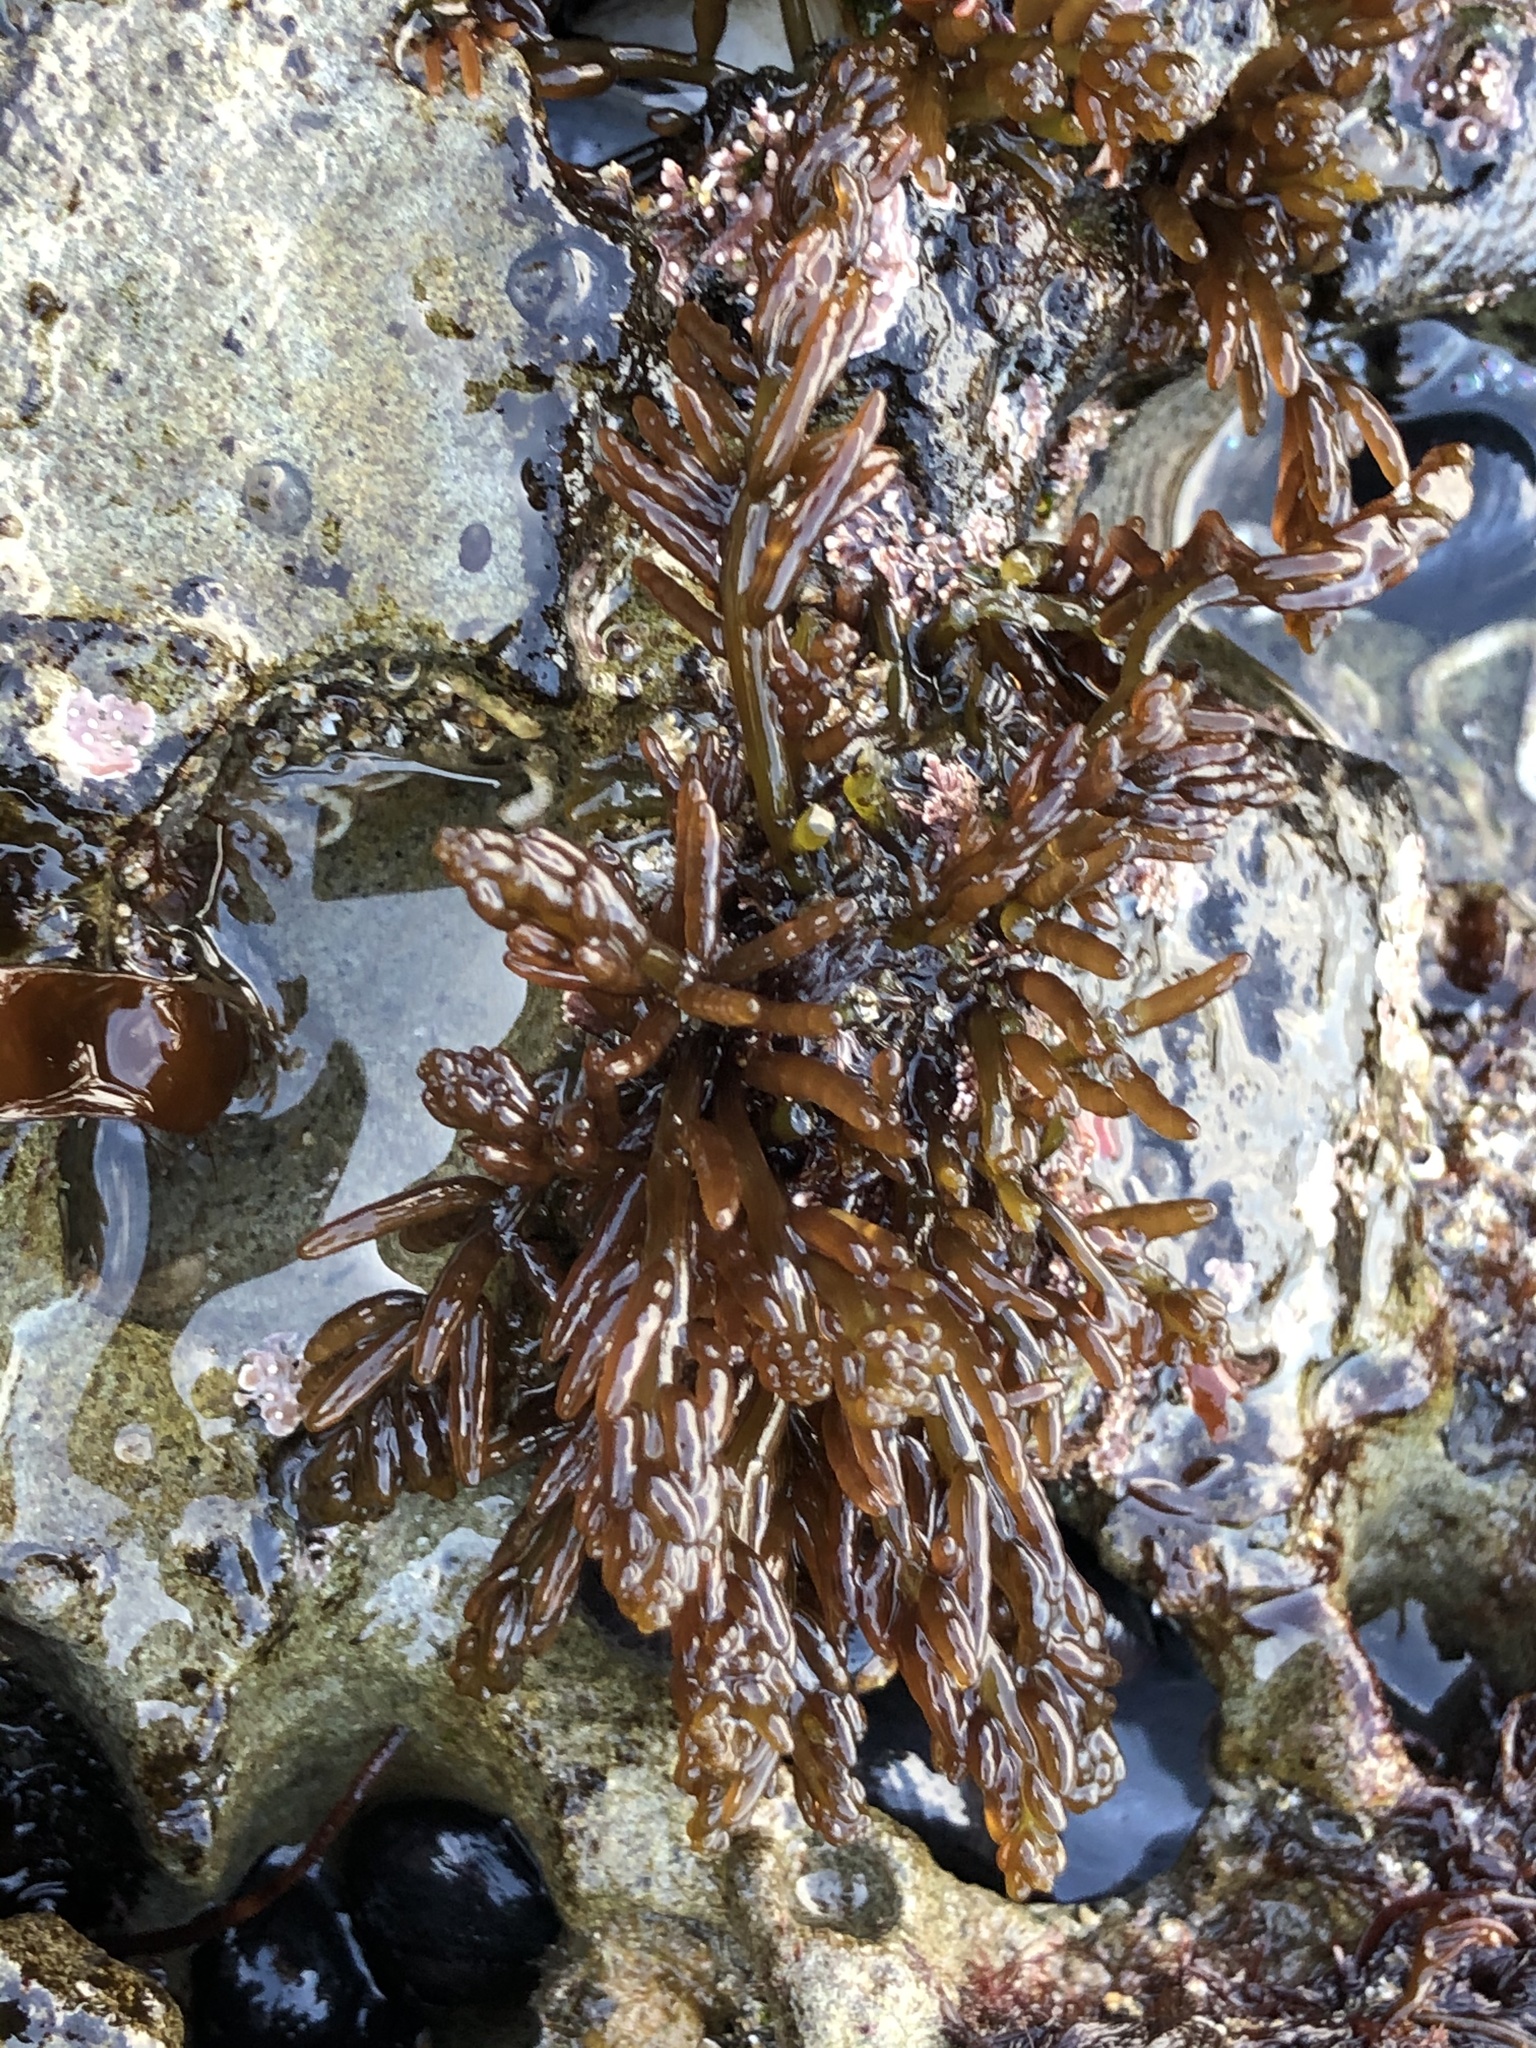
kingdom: Plantae
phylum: Rhodophyta
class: Florideophyceae
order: Rhodymeniales
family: Champiaceae
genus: Neogastroclonium
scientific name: Neogastroclonium subarticulatum
